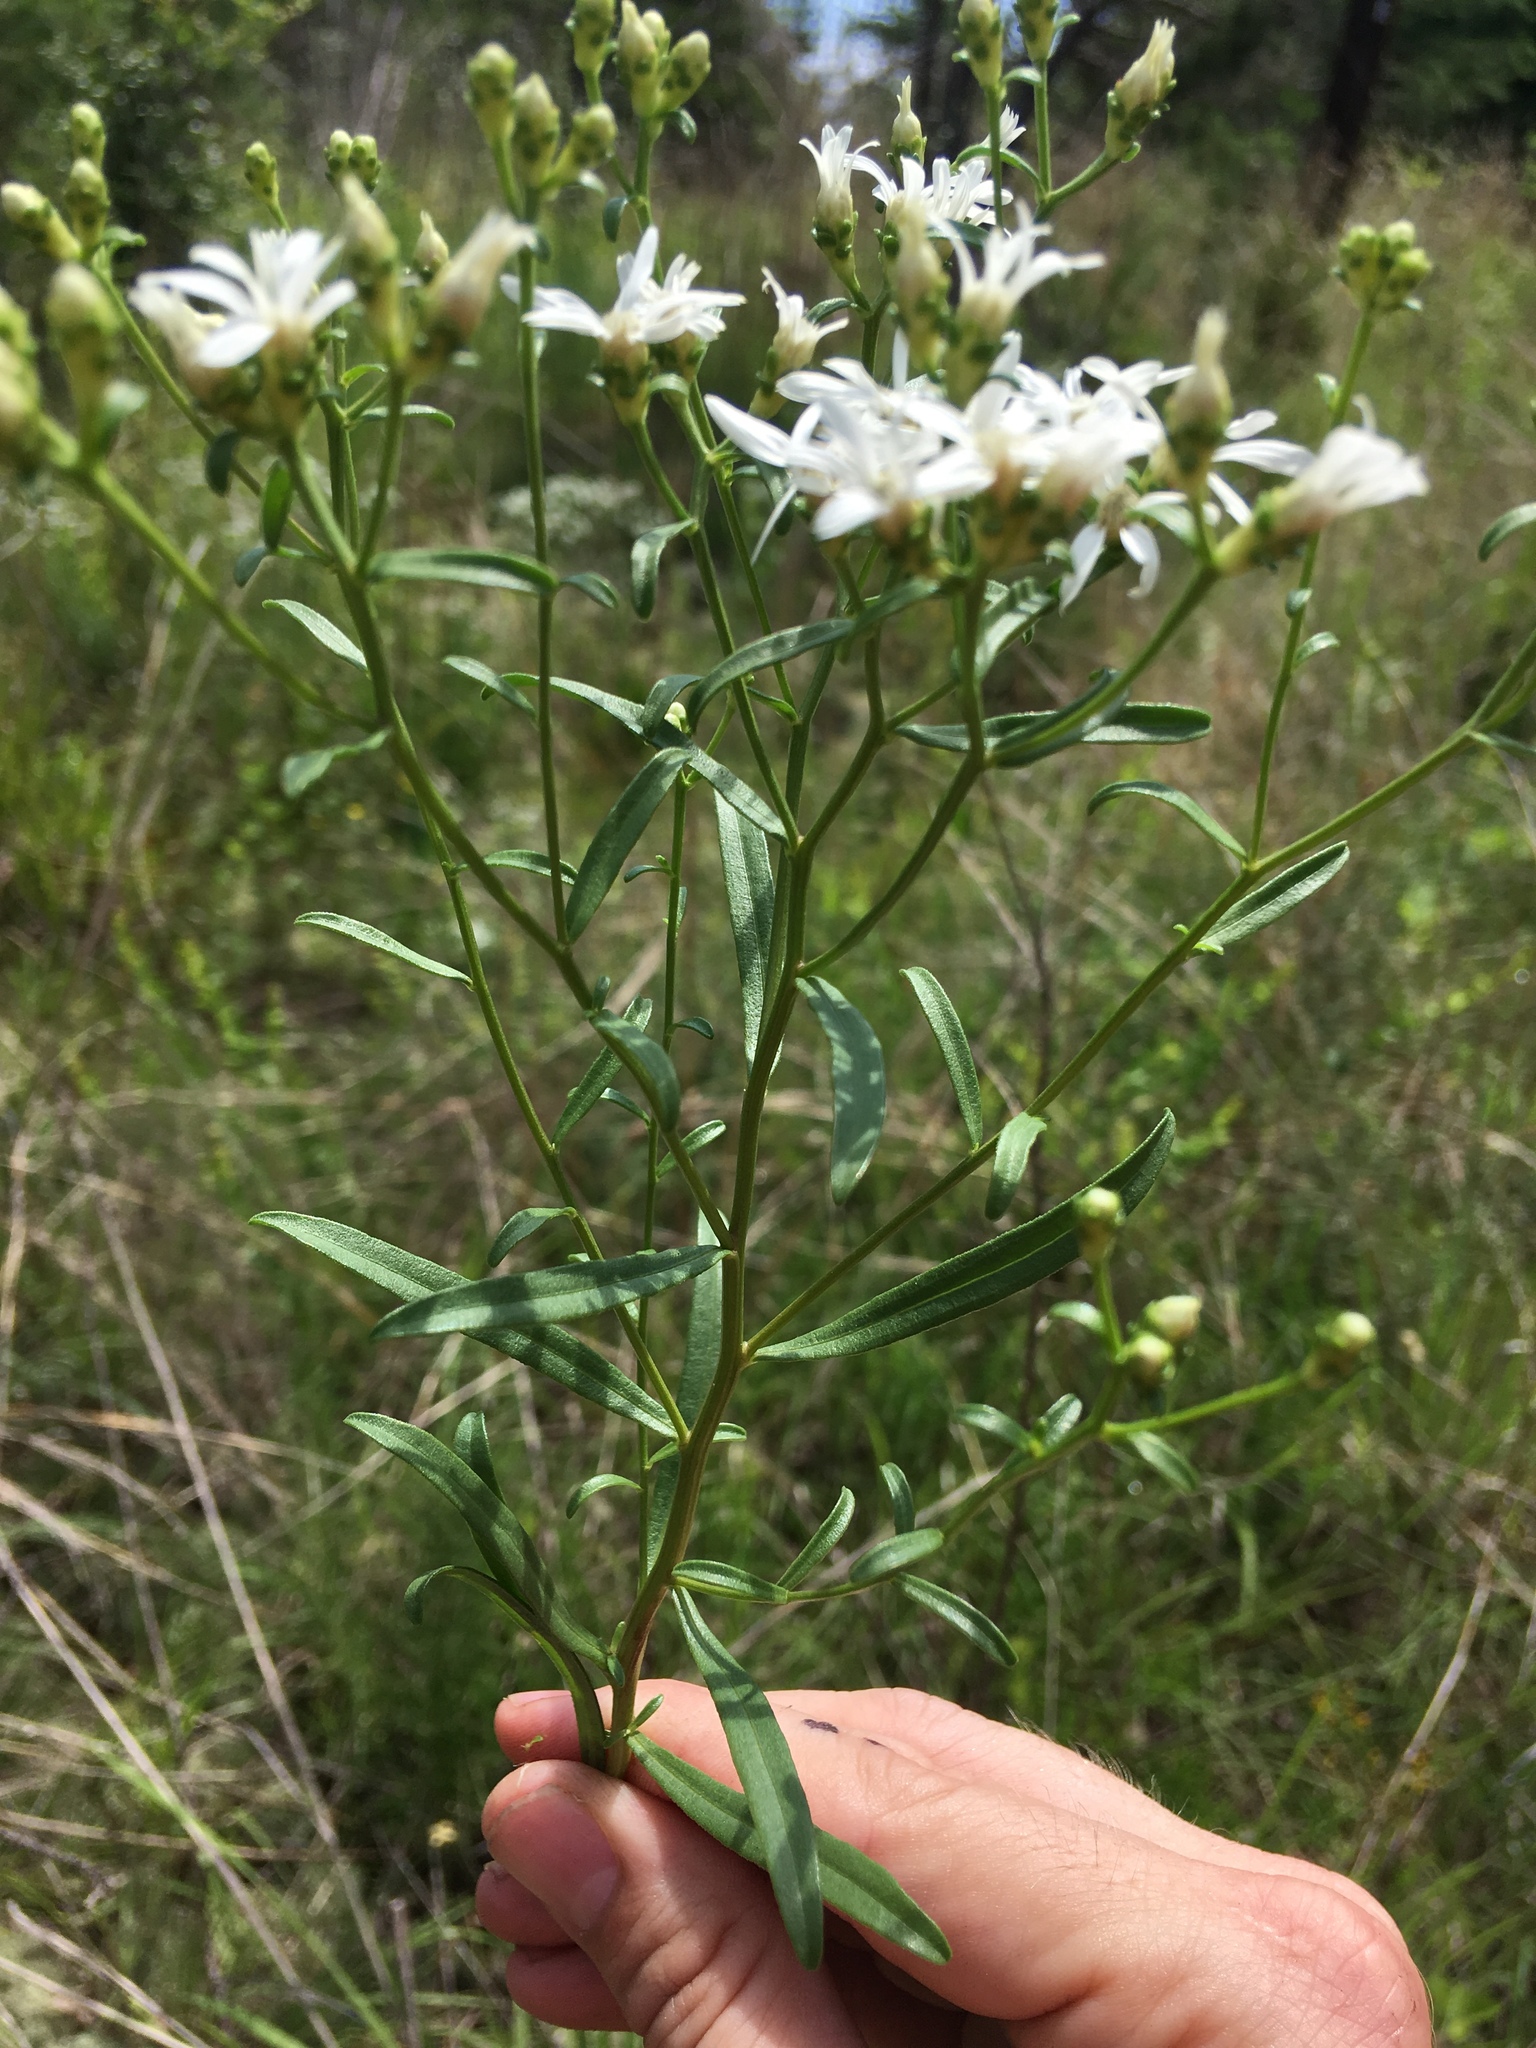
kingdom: Plantae
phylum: Tracheophyta
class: Magnoliopsida
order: Asterales
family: Asteraceae
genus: Sericocarpus
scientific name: Sericocarpus linifolius
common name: Narrow-leaf aster
